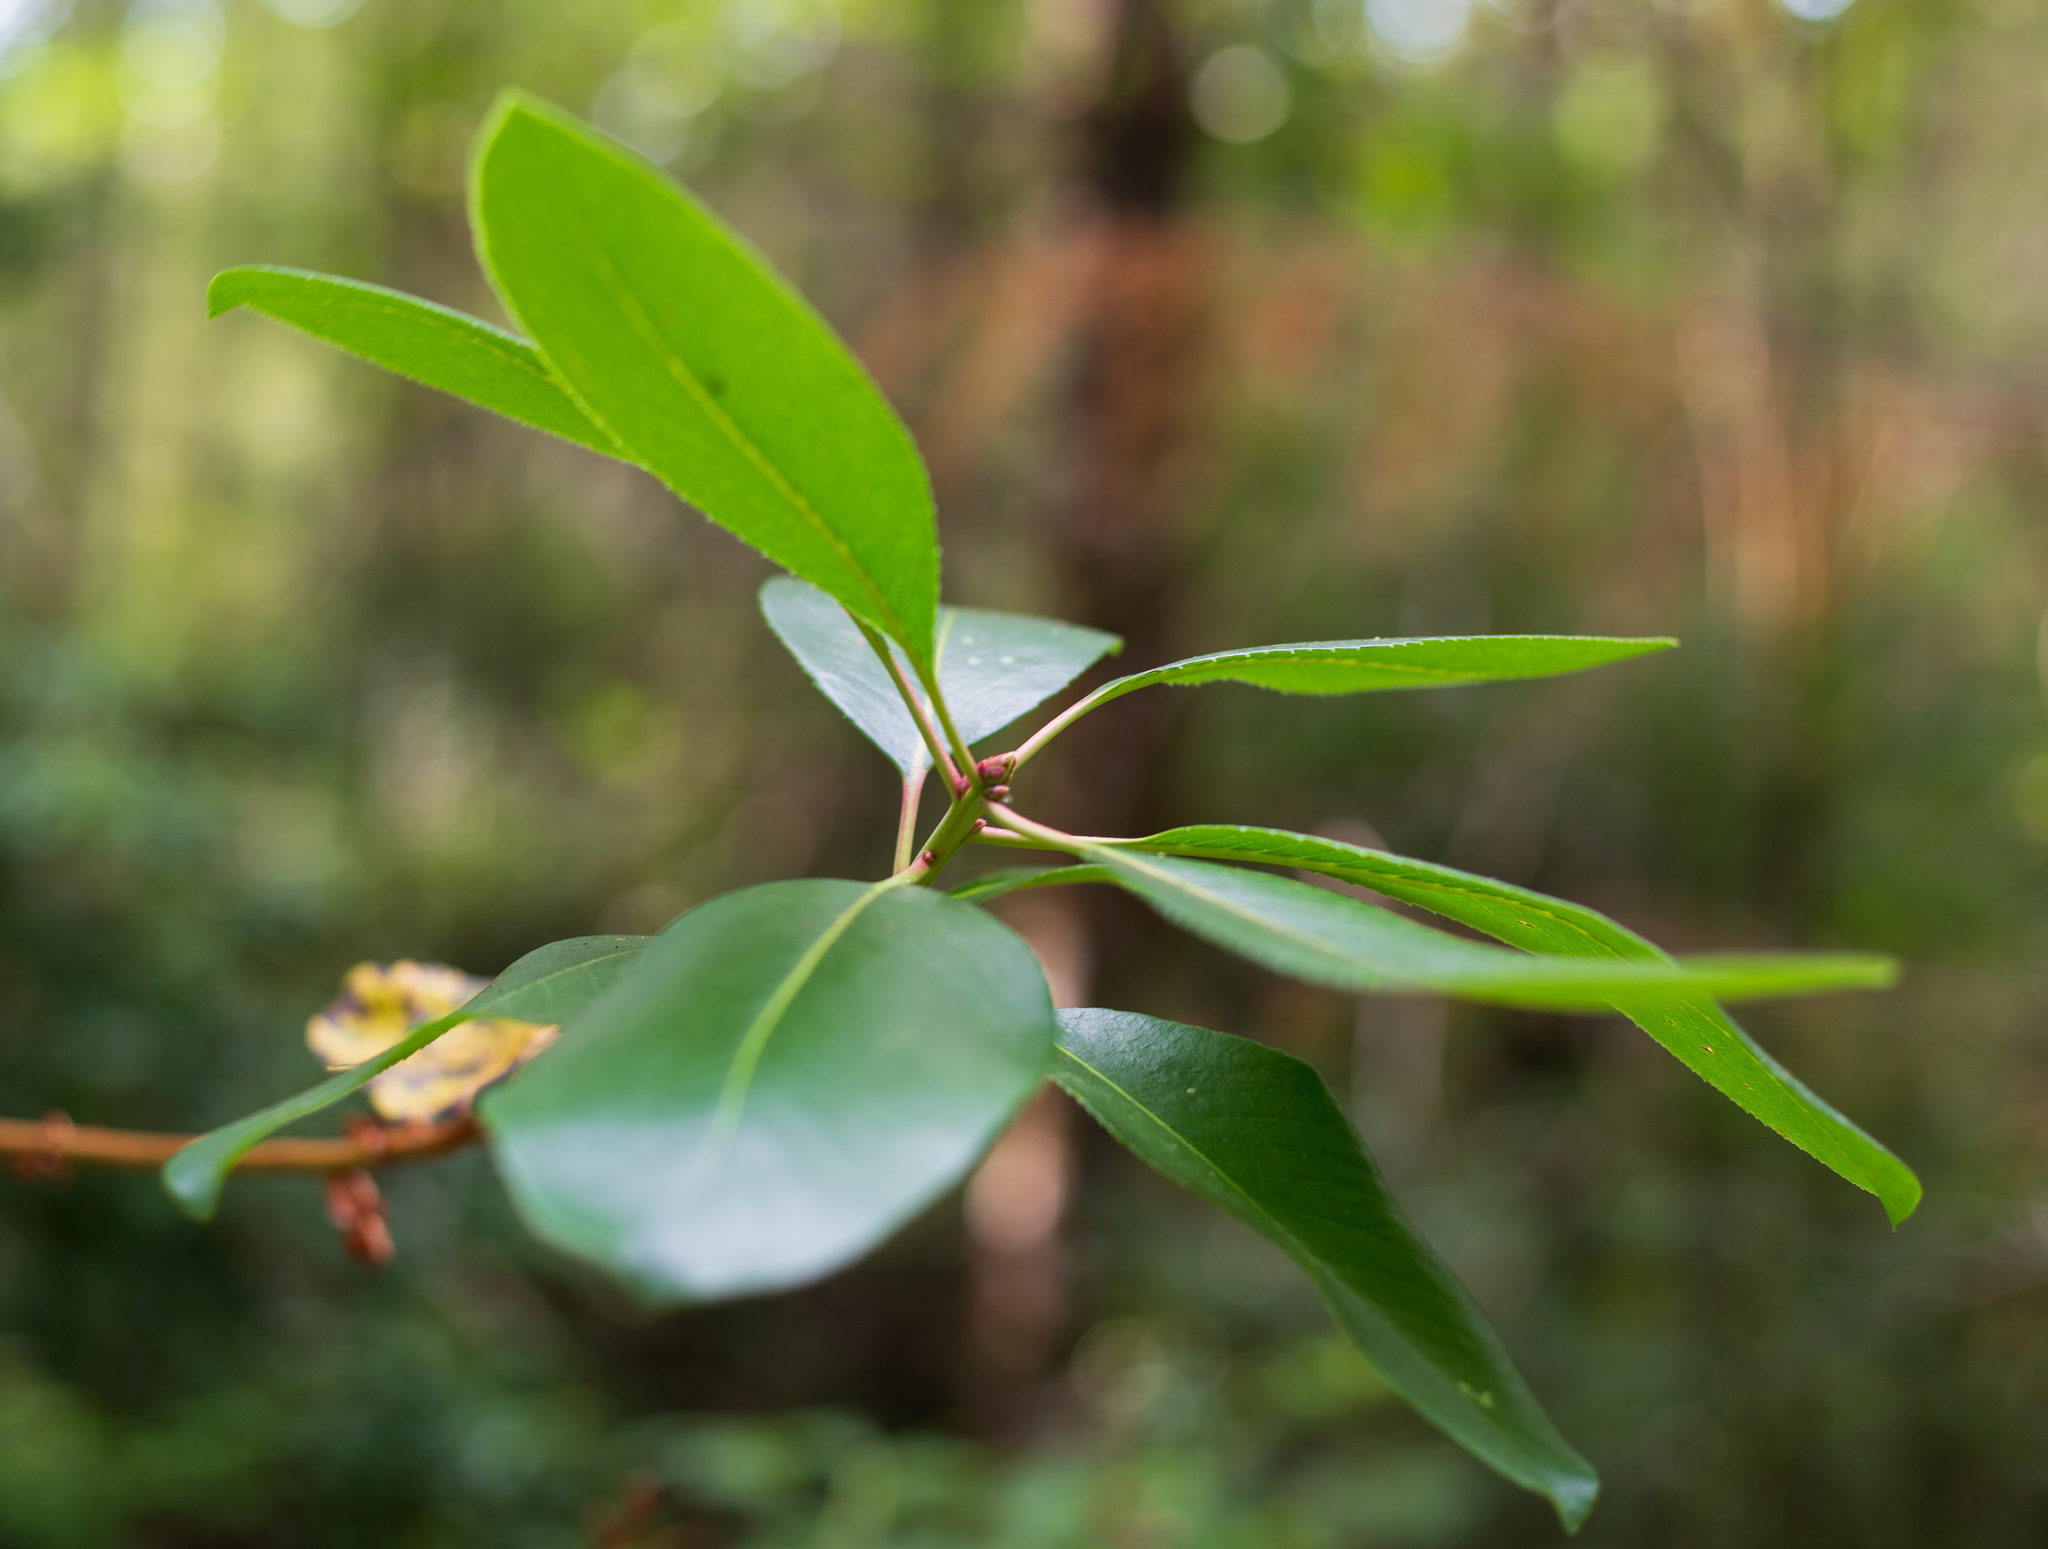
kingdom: Plantae
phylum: Tracheophyta
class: Magnoliopsida
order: Ericales
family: Ericaceae
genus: Arbutus
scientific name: Arbutus menziesii
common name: Pacific madrone
